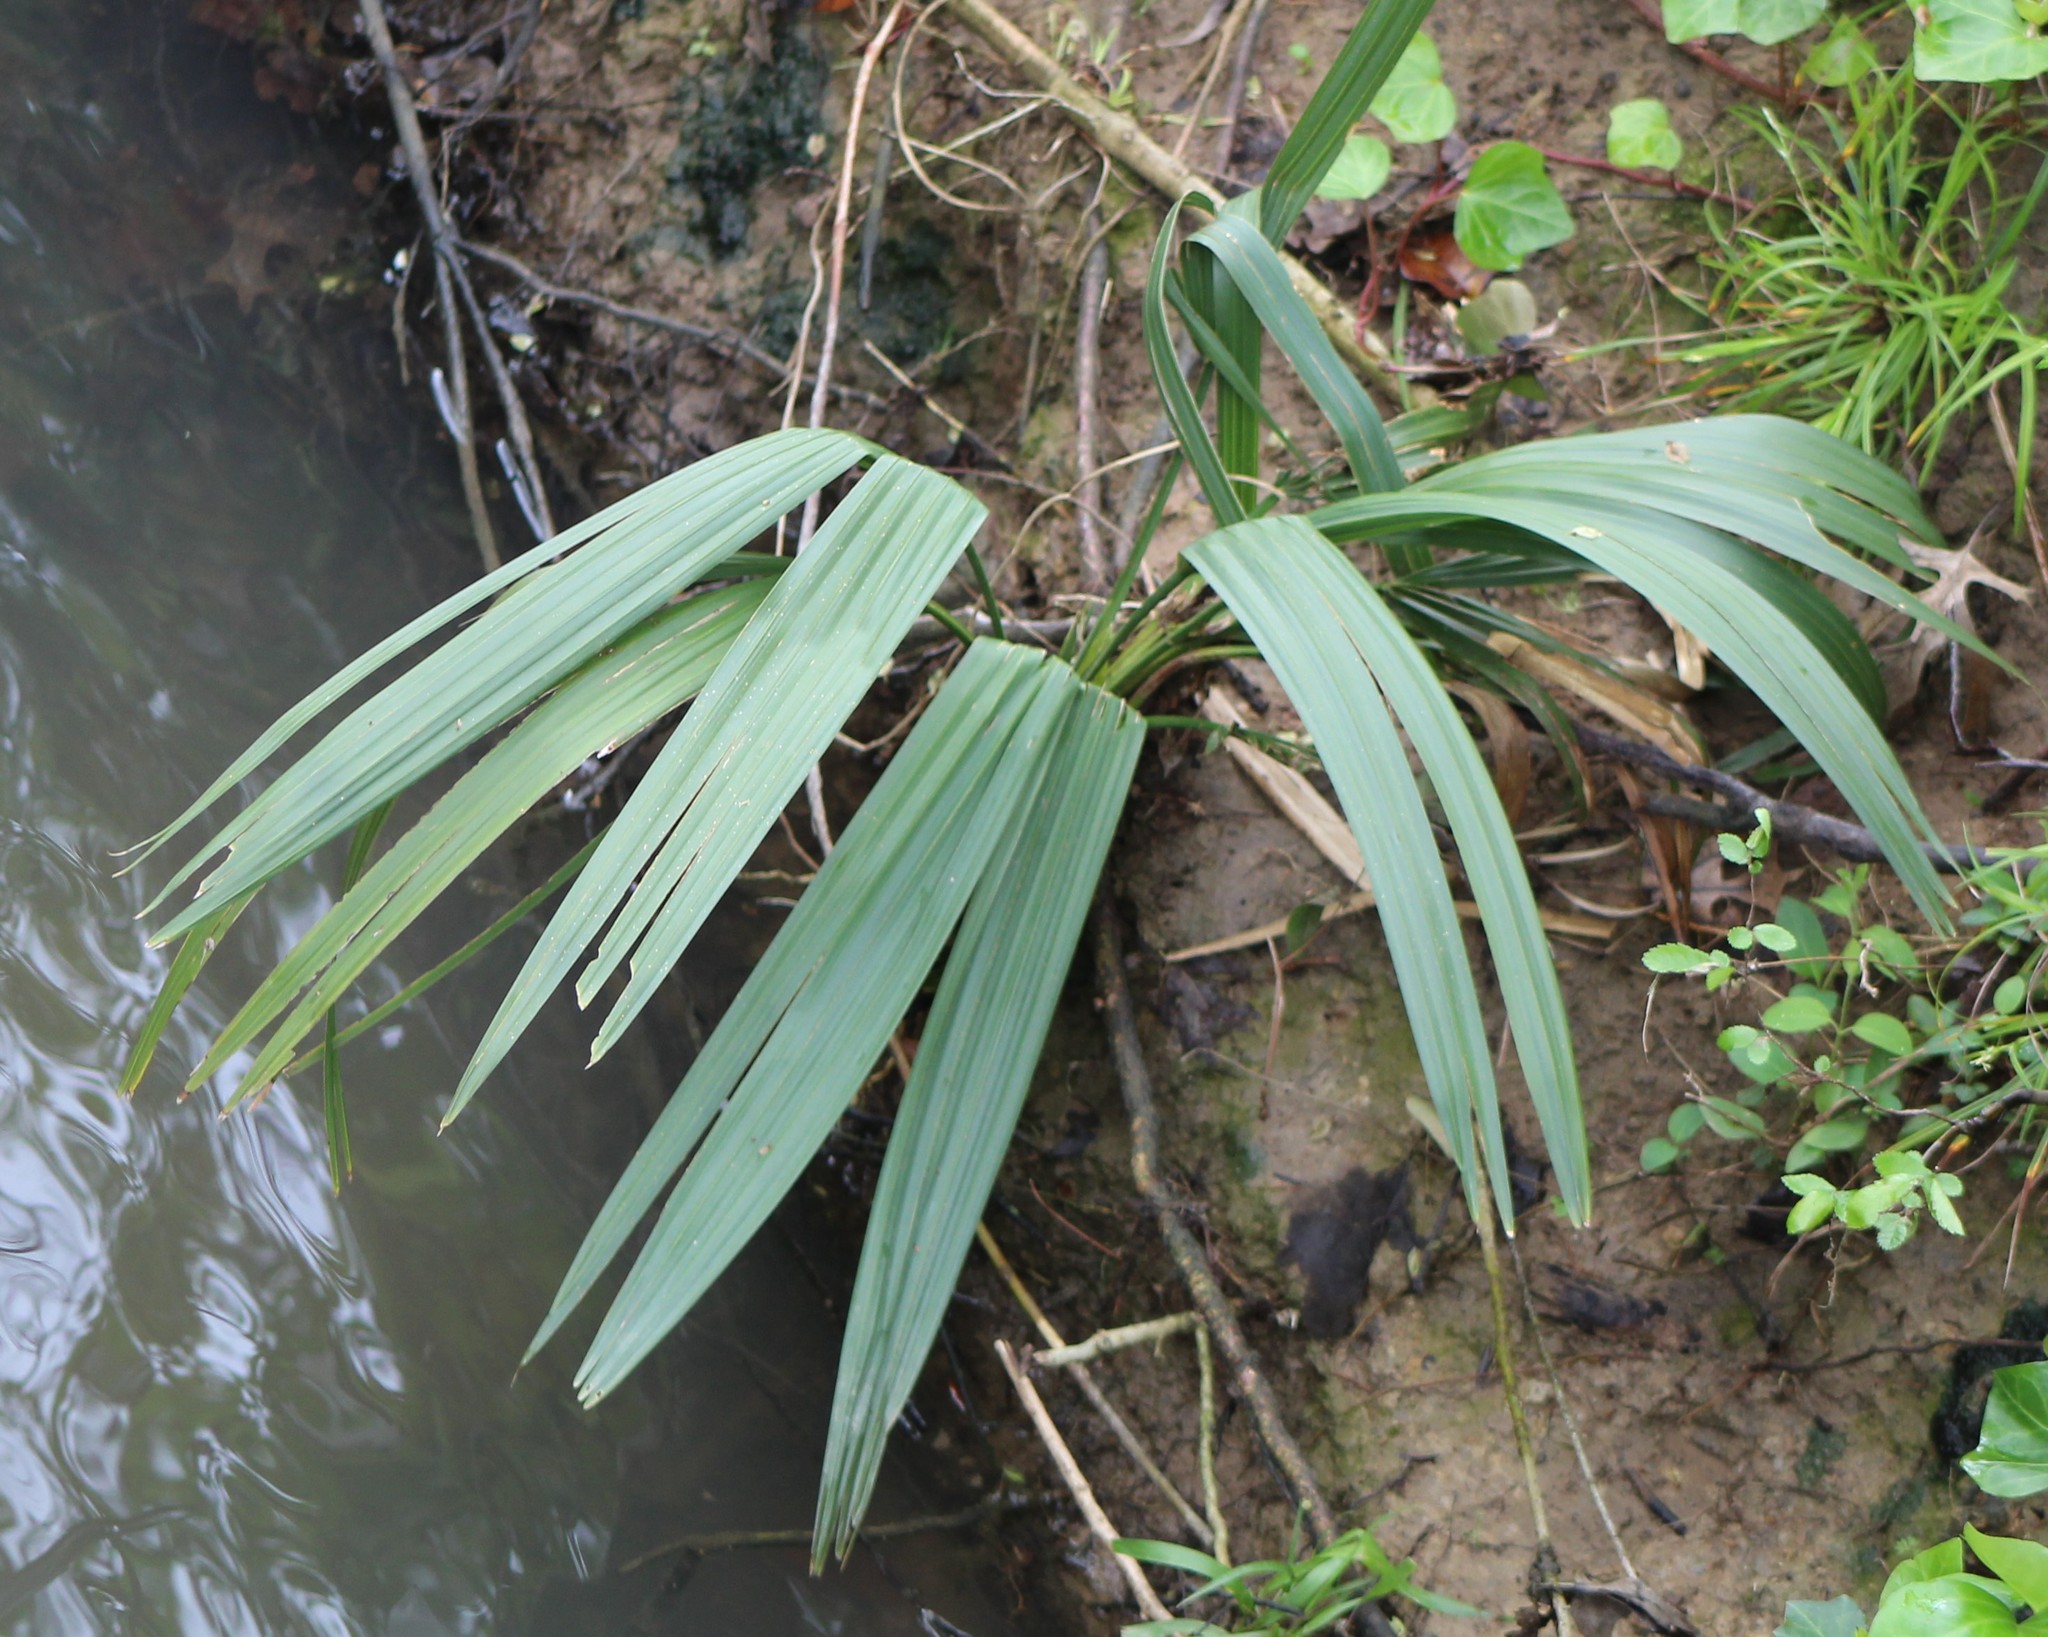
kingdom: Plantae
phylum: Tracheophyta
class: Liliopsida
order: Arecales
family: Arecaceae
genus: Sabal
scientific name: Sabal minor
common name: Dwarf palmetto
